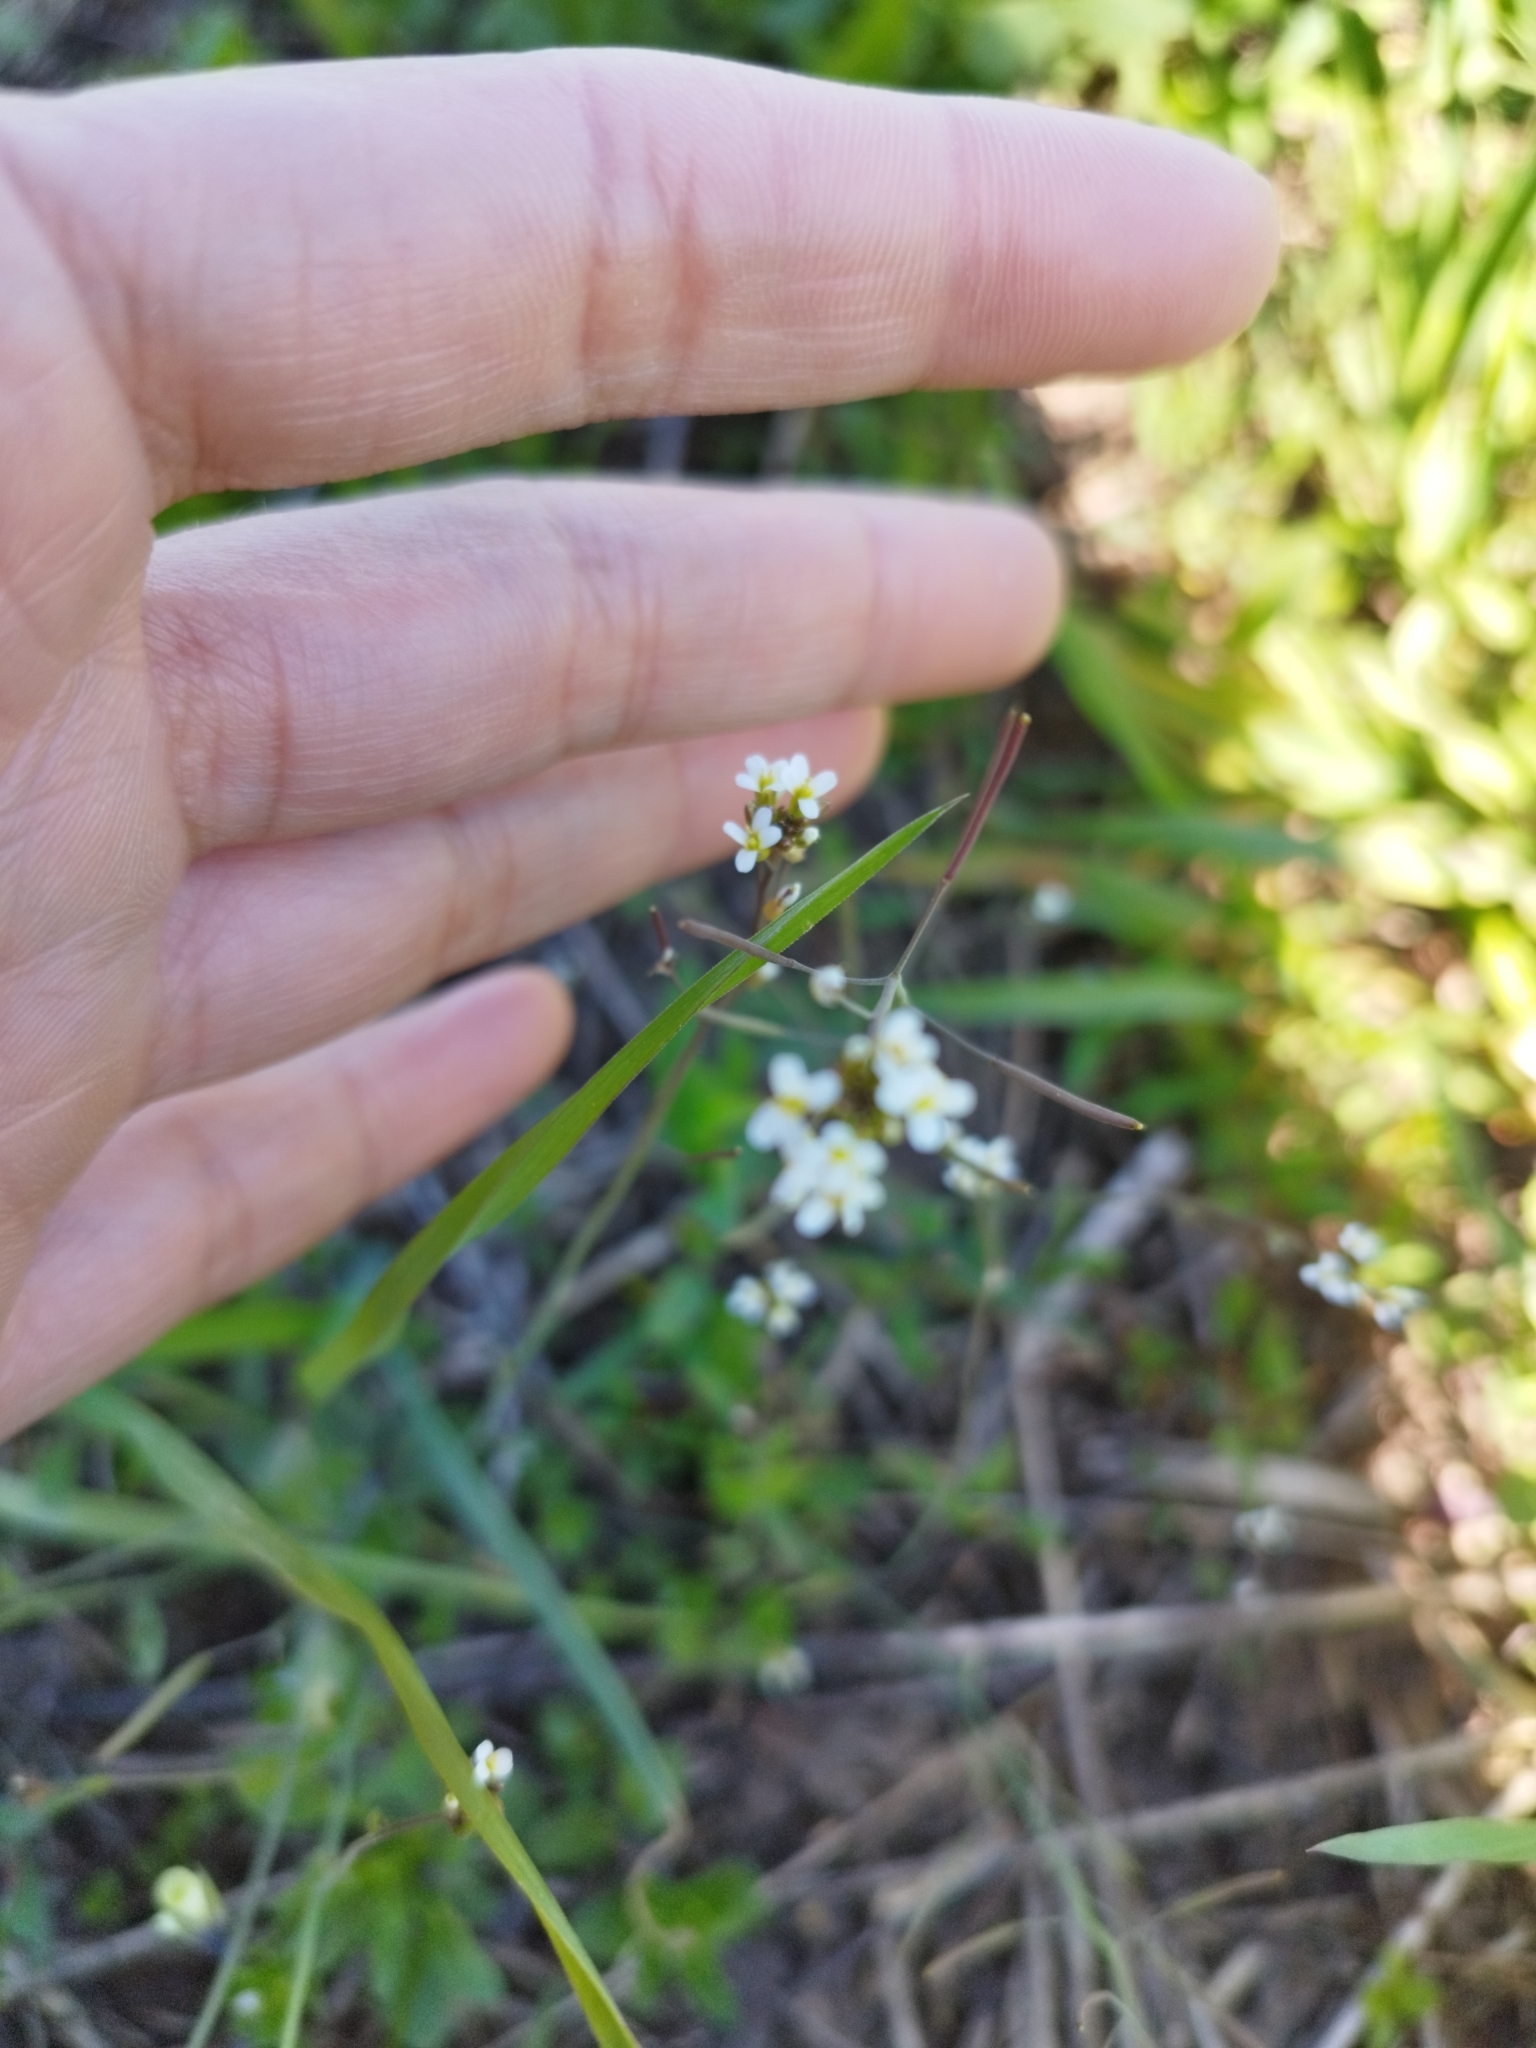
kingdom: Plantae
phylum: Tracheophyta
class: Magnoliopsida
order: Brassicales
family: Brassicaceae
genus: Arabidopsis
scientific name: Arabidopsis thaliana
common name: Thale cress
